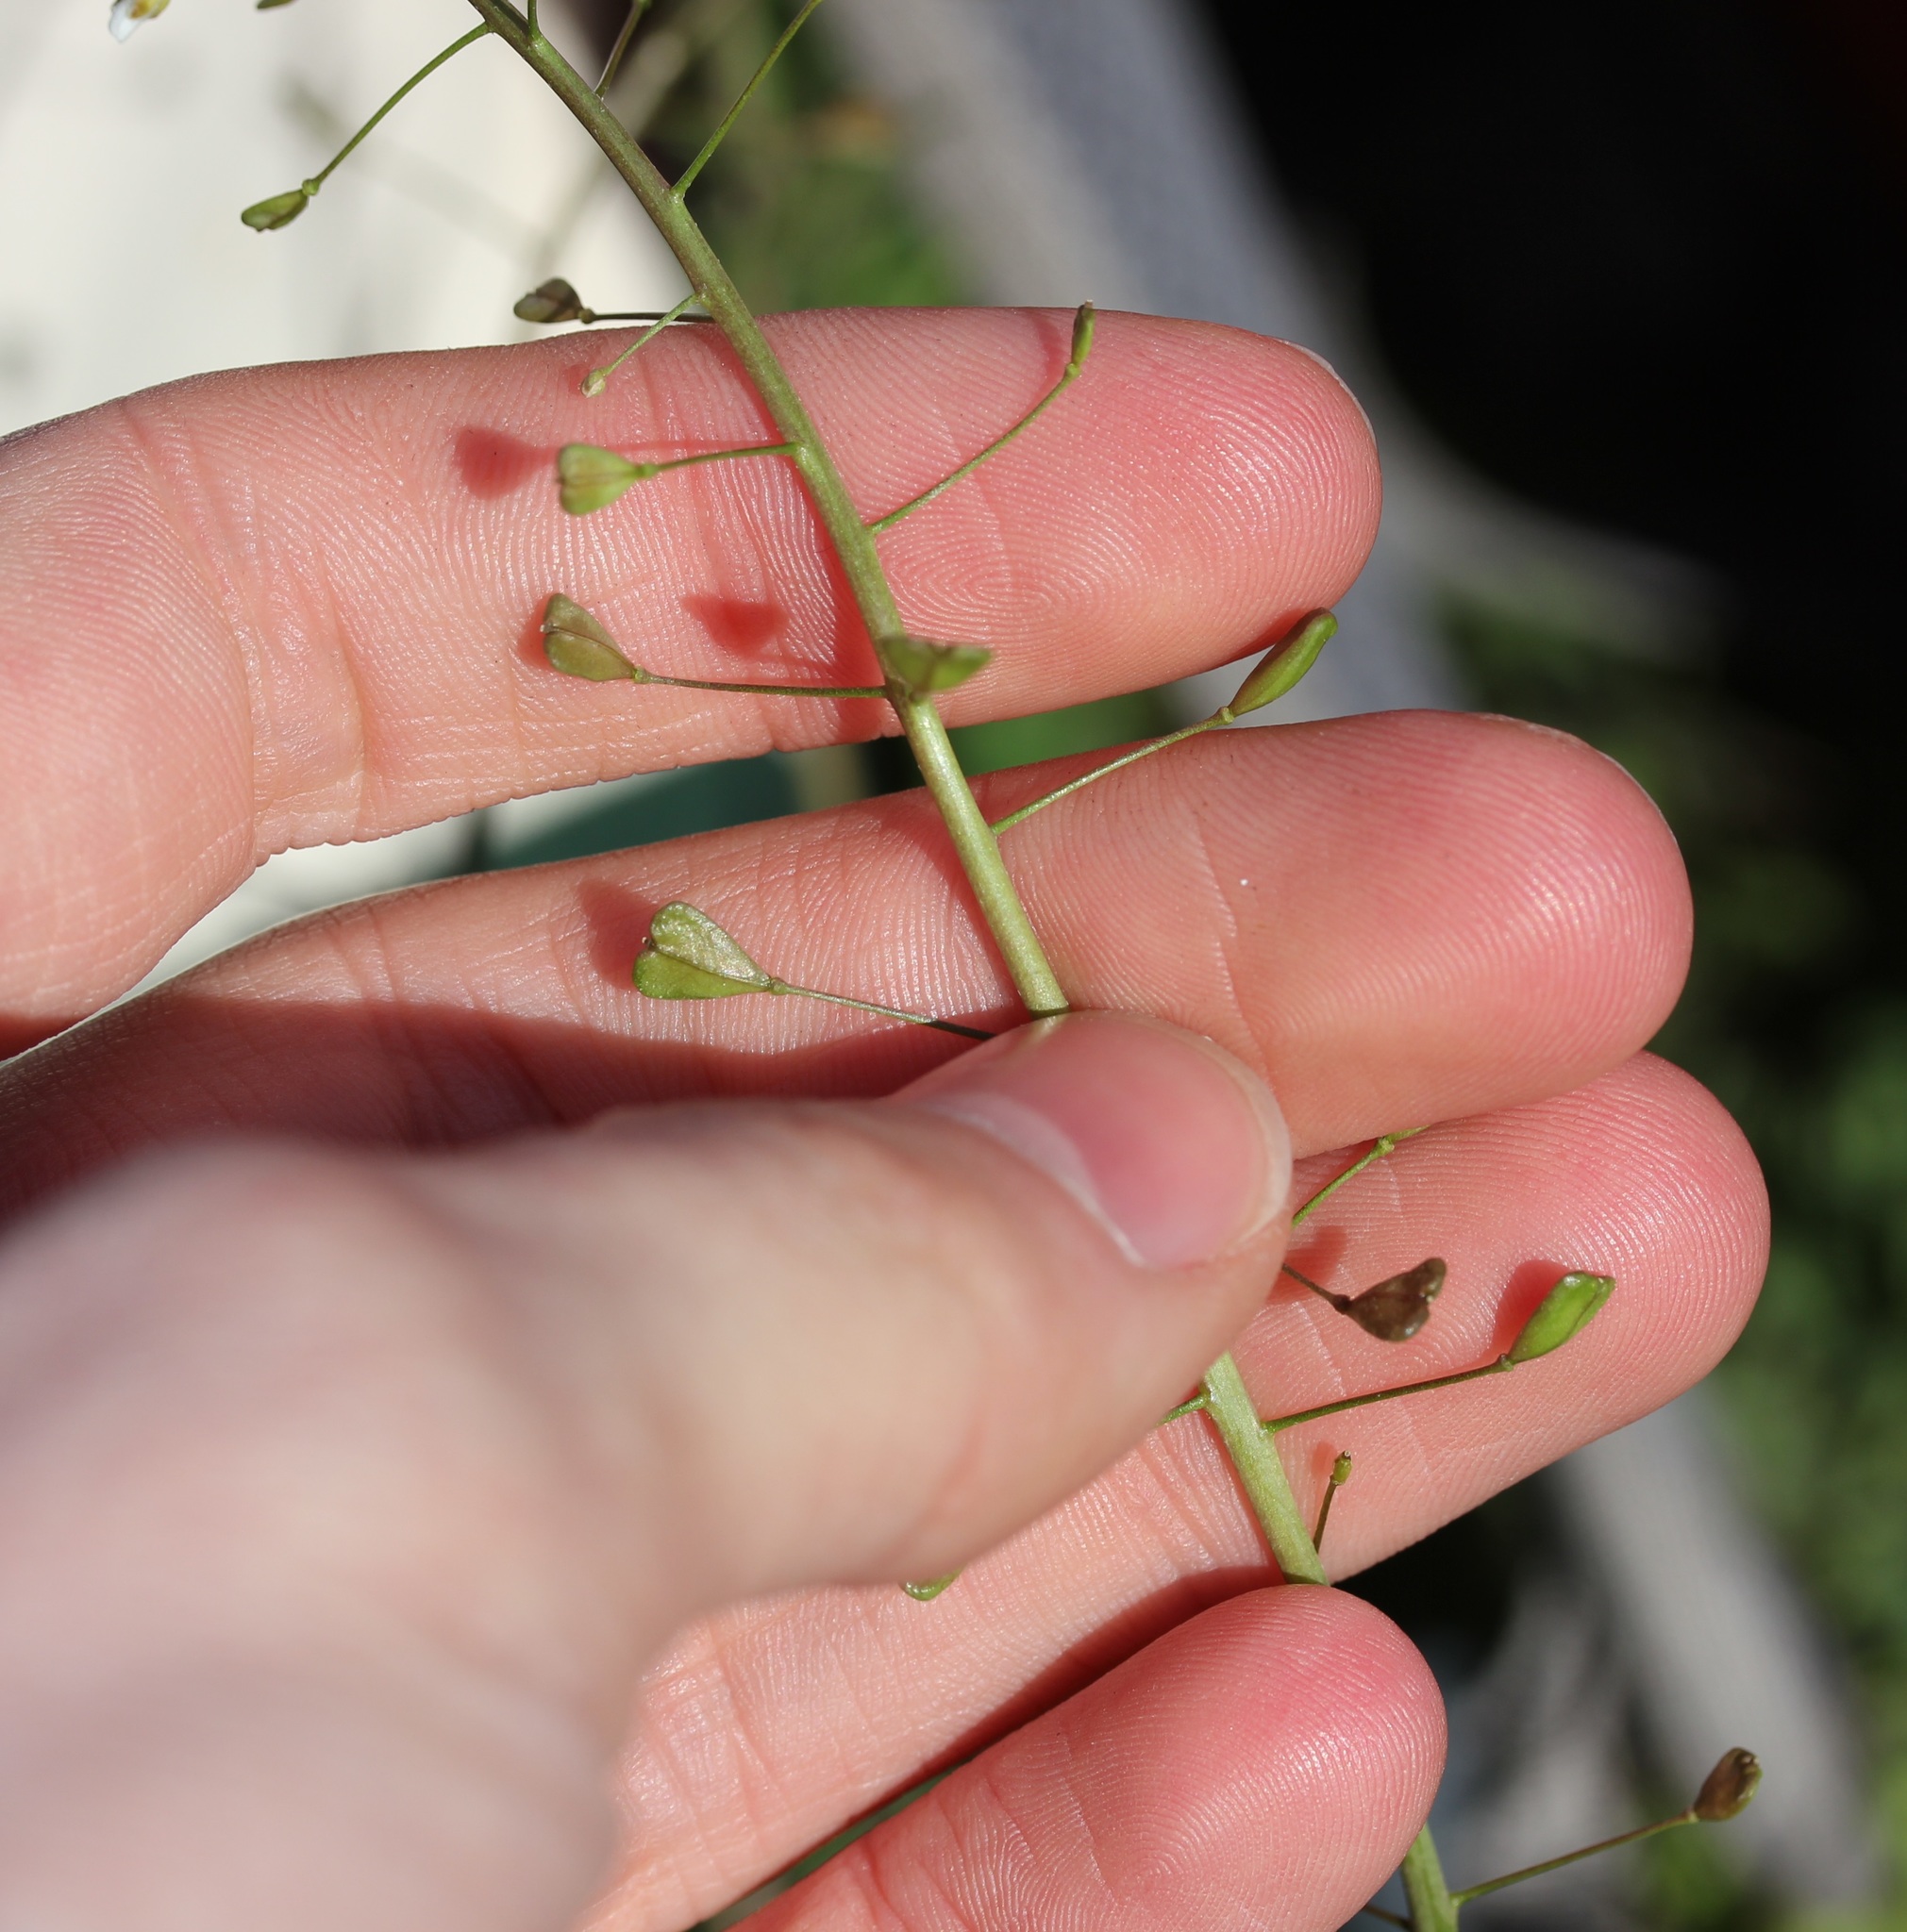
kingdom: Plantae
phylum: Tracheophyta
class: Magnoliopsida
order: Brassicales
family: Brassicaceae
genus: Capsella
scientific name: Capsella bursa-pastoris
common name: Shepherd's purse
